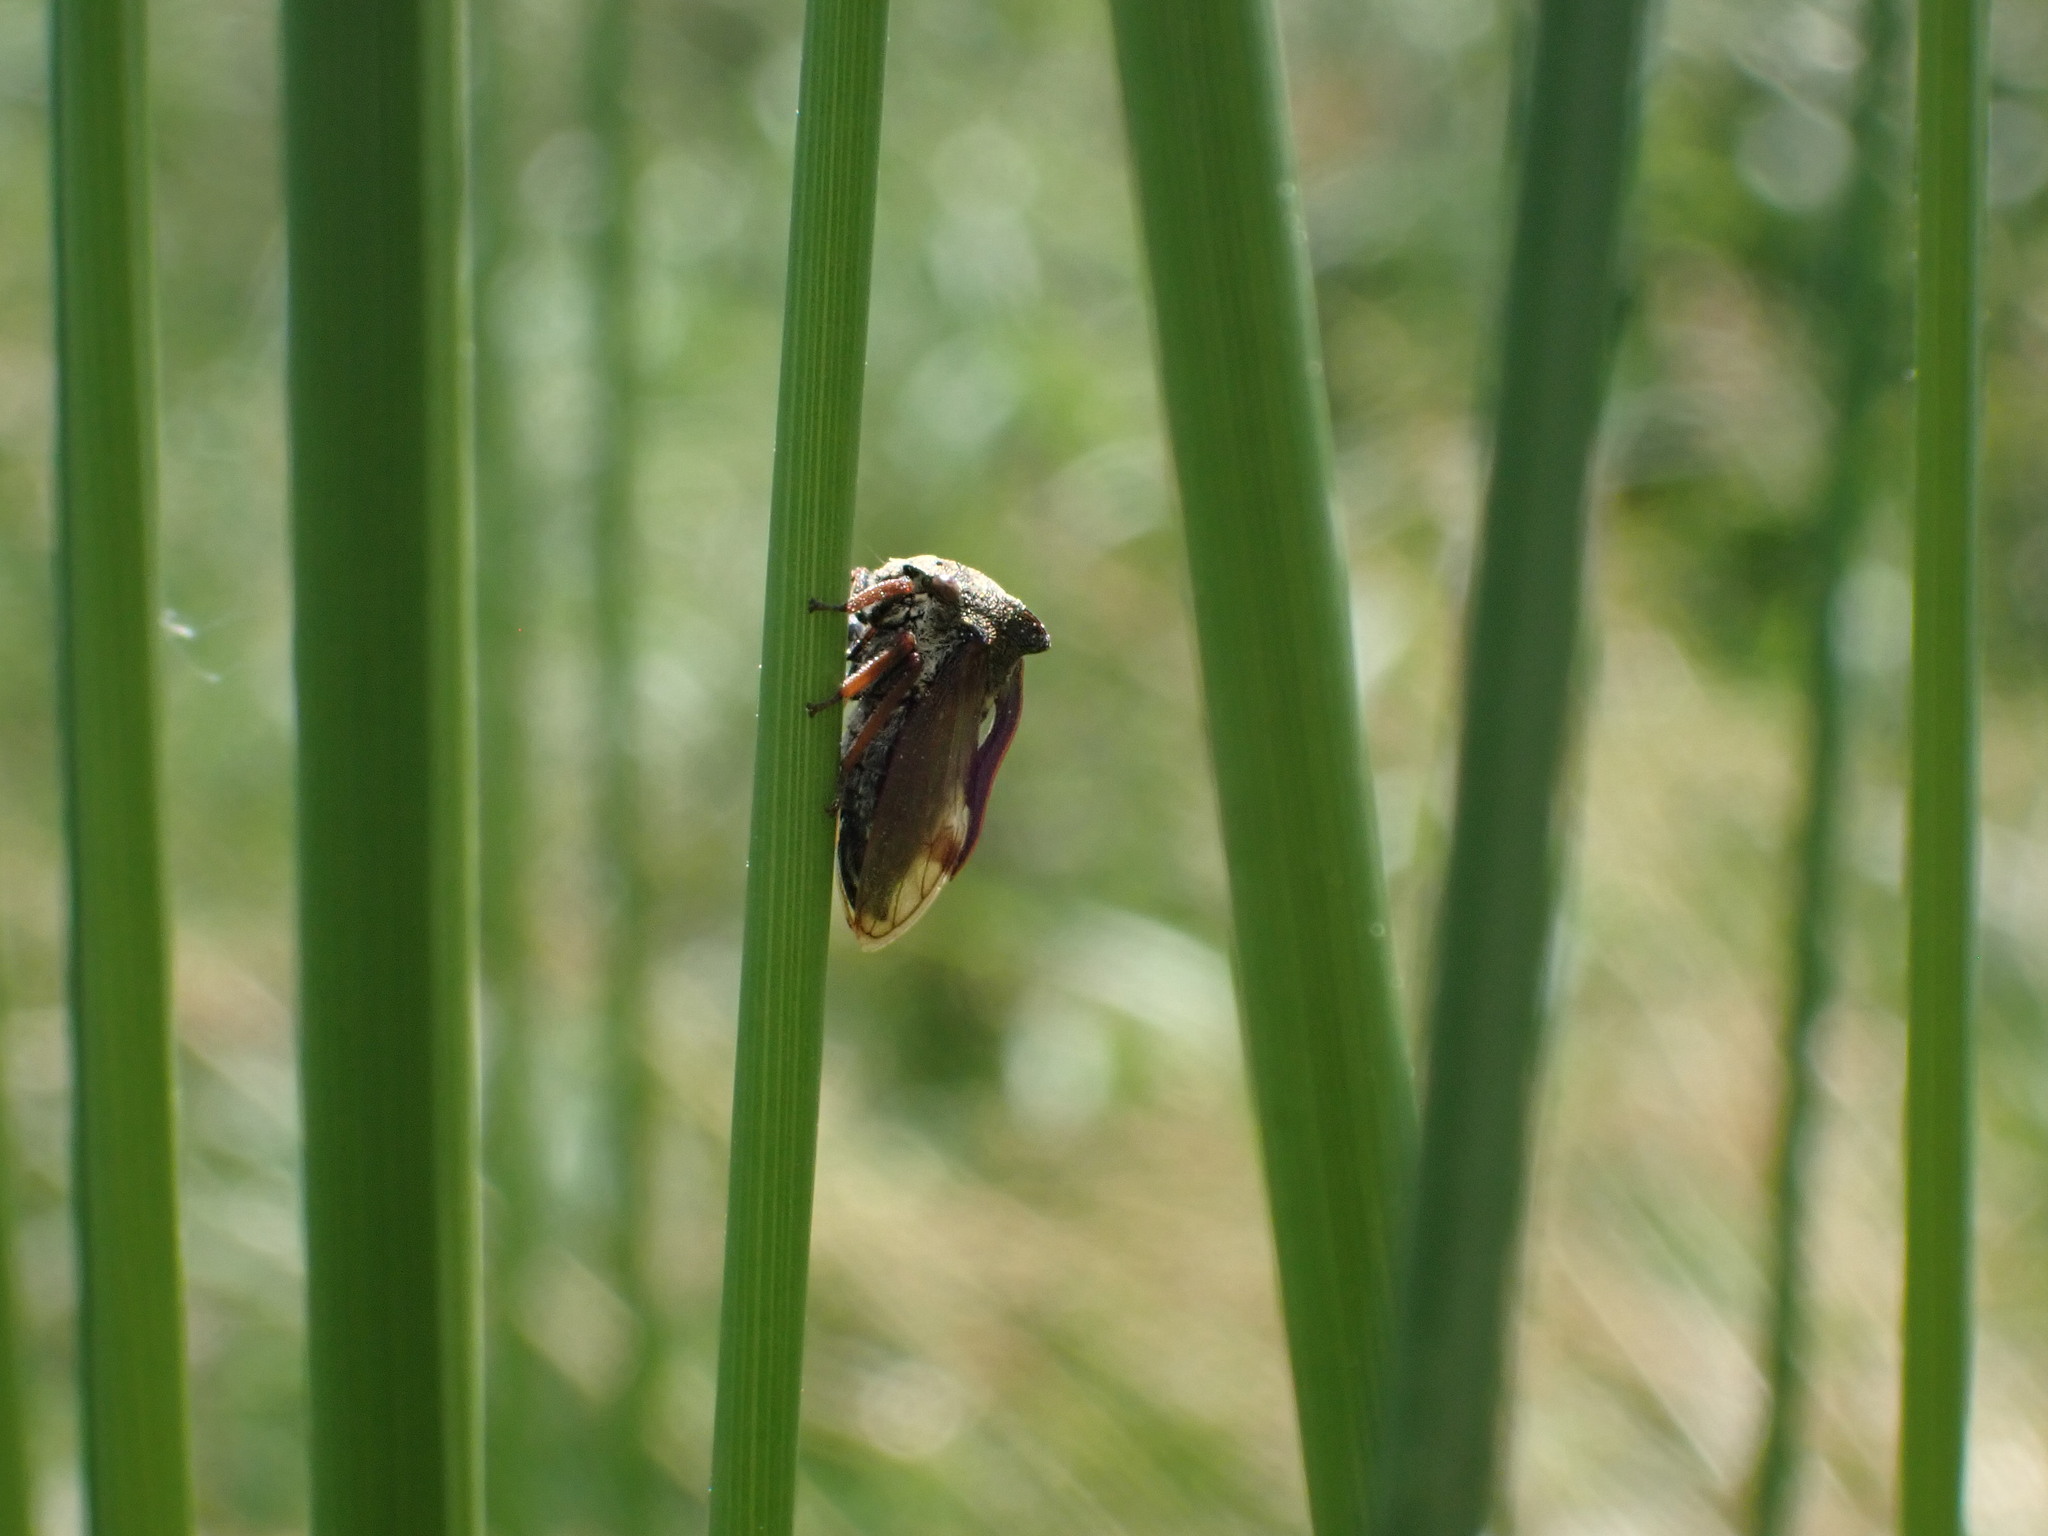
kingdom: Animalia
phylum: Arthropoda
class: Insecta
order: Hemiptera
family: Membracidae
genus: Centrotus
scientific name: Centrotus cornuta
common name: Treehopper
